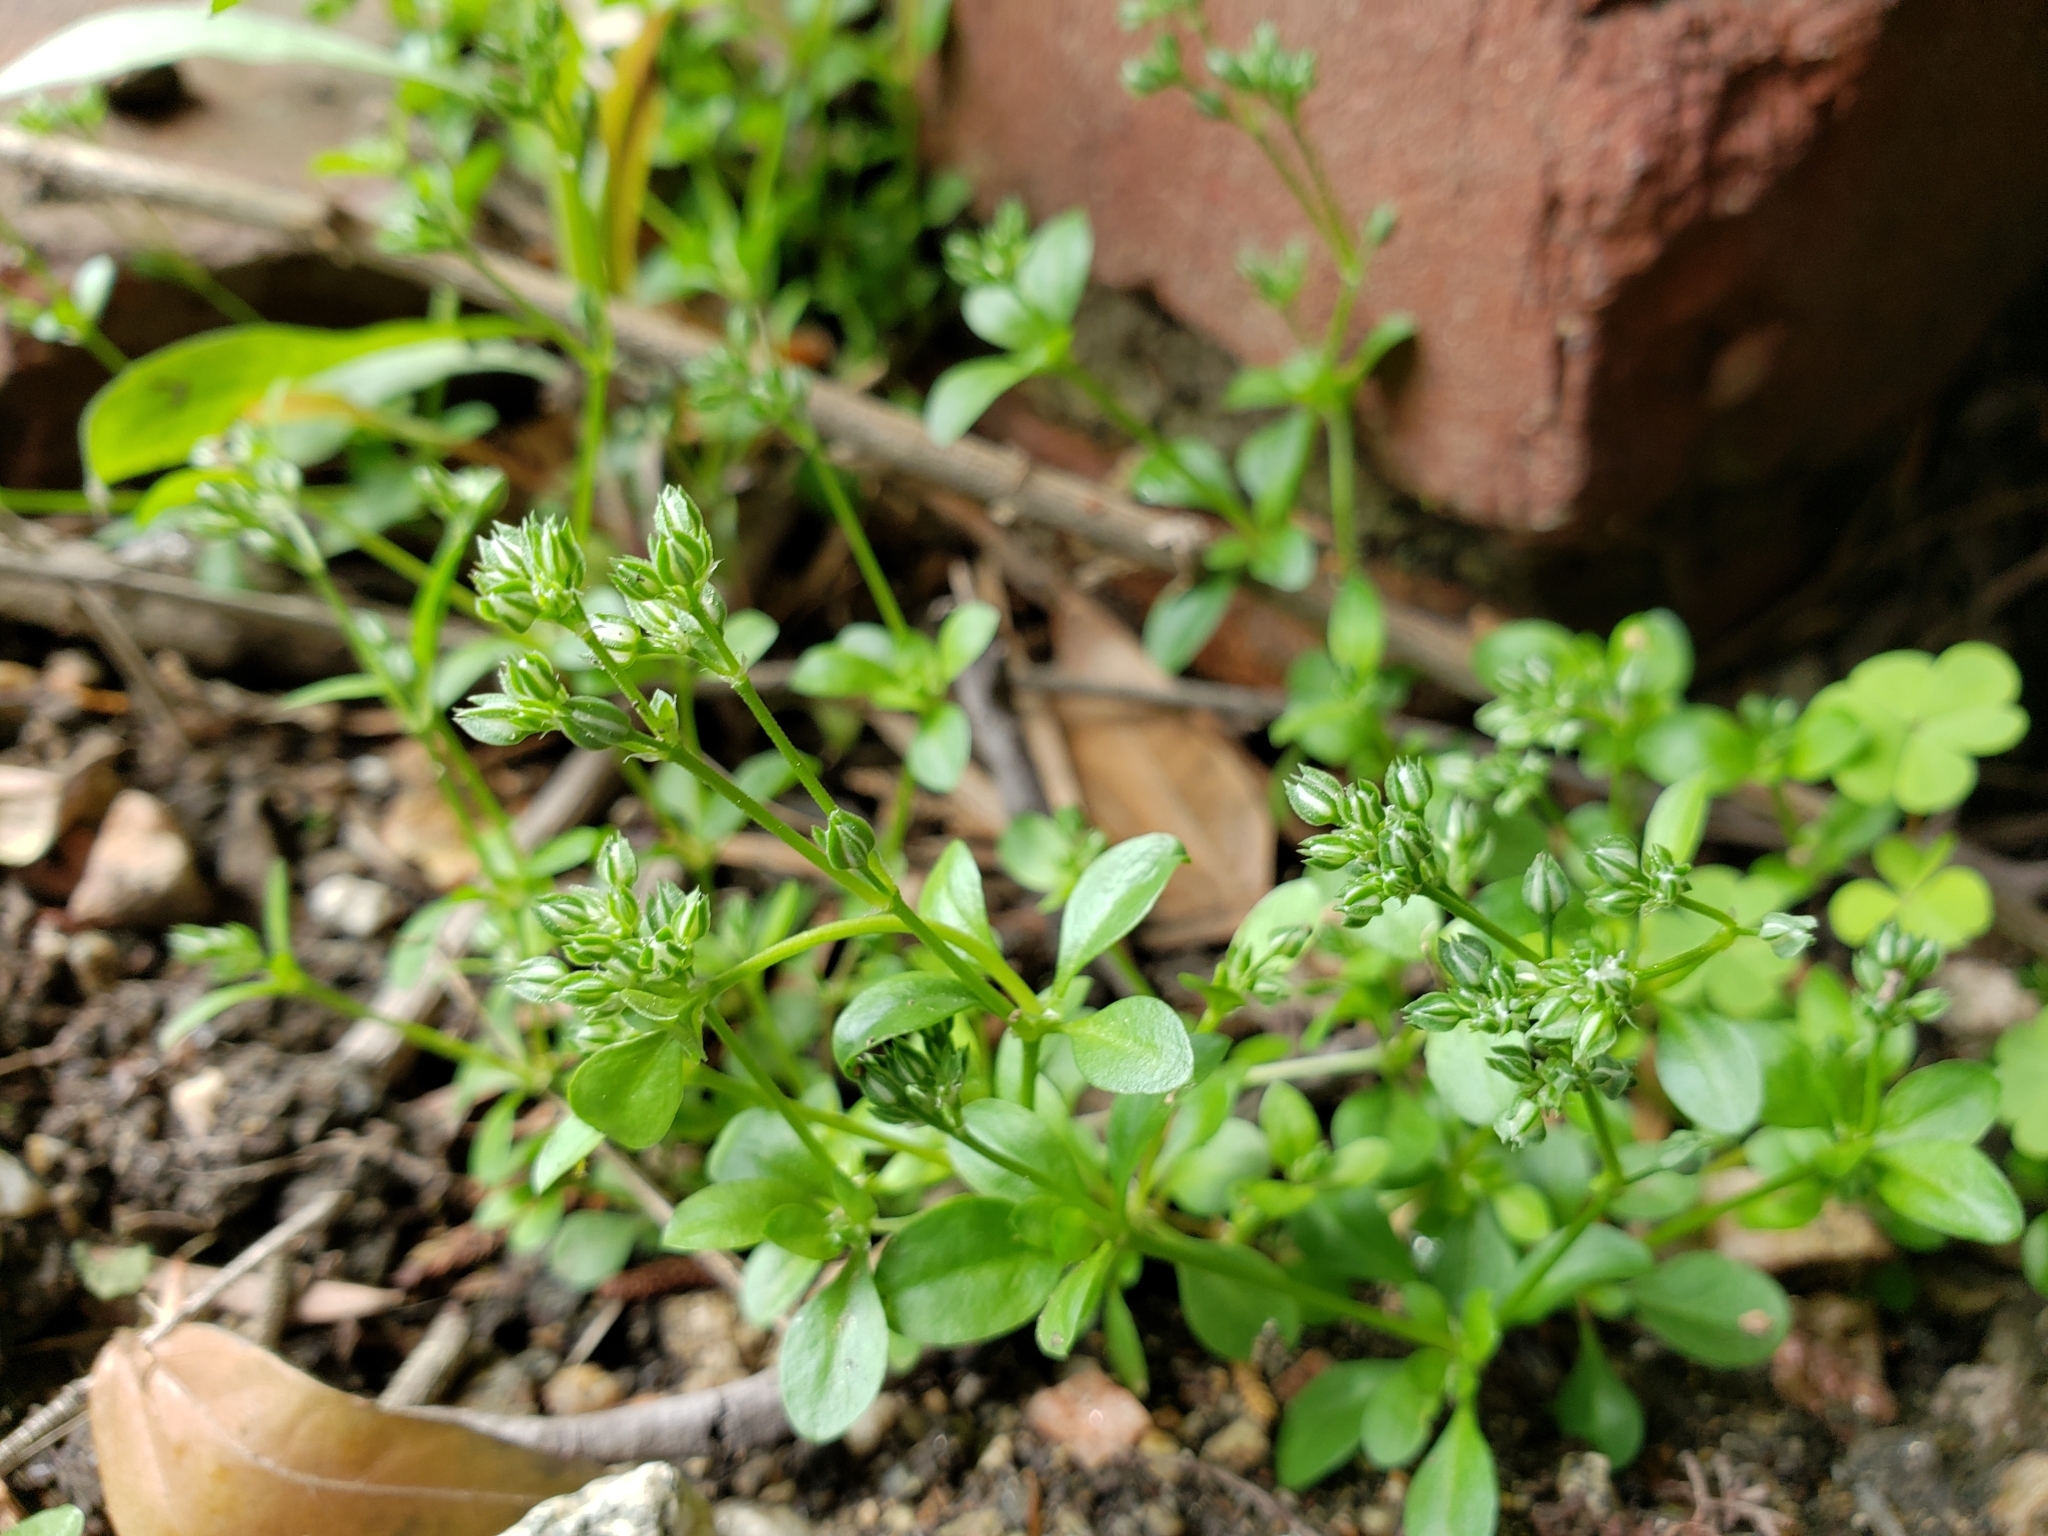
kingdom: Plantae
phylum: Tracheophyta
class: Magnoliopsida
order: Caryophyllales
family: Caryophyllaceae
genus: Polycarpon
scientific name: Polycarpon tetraphyllum
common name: Four-leaved all-seed
